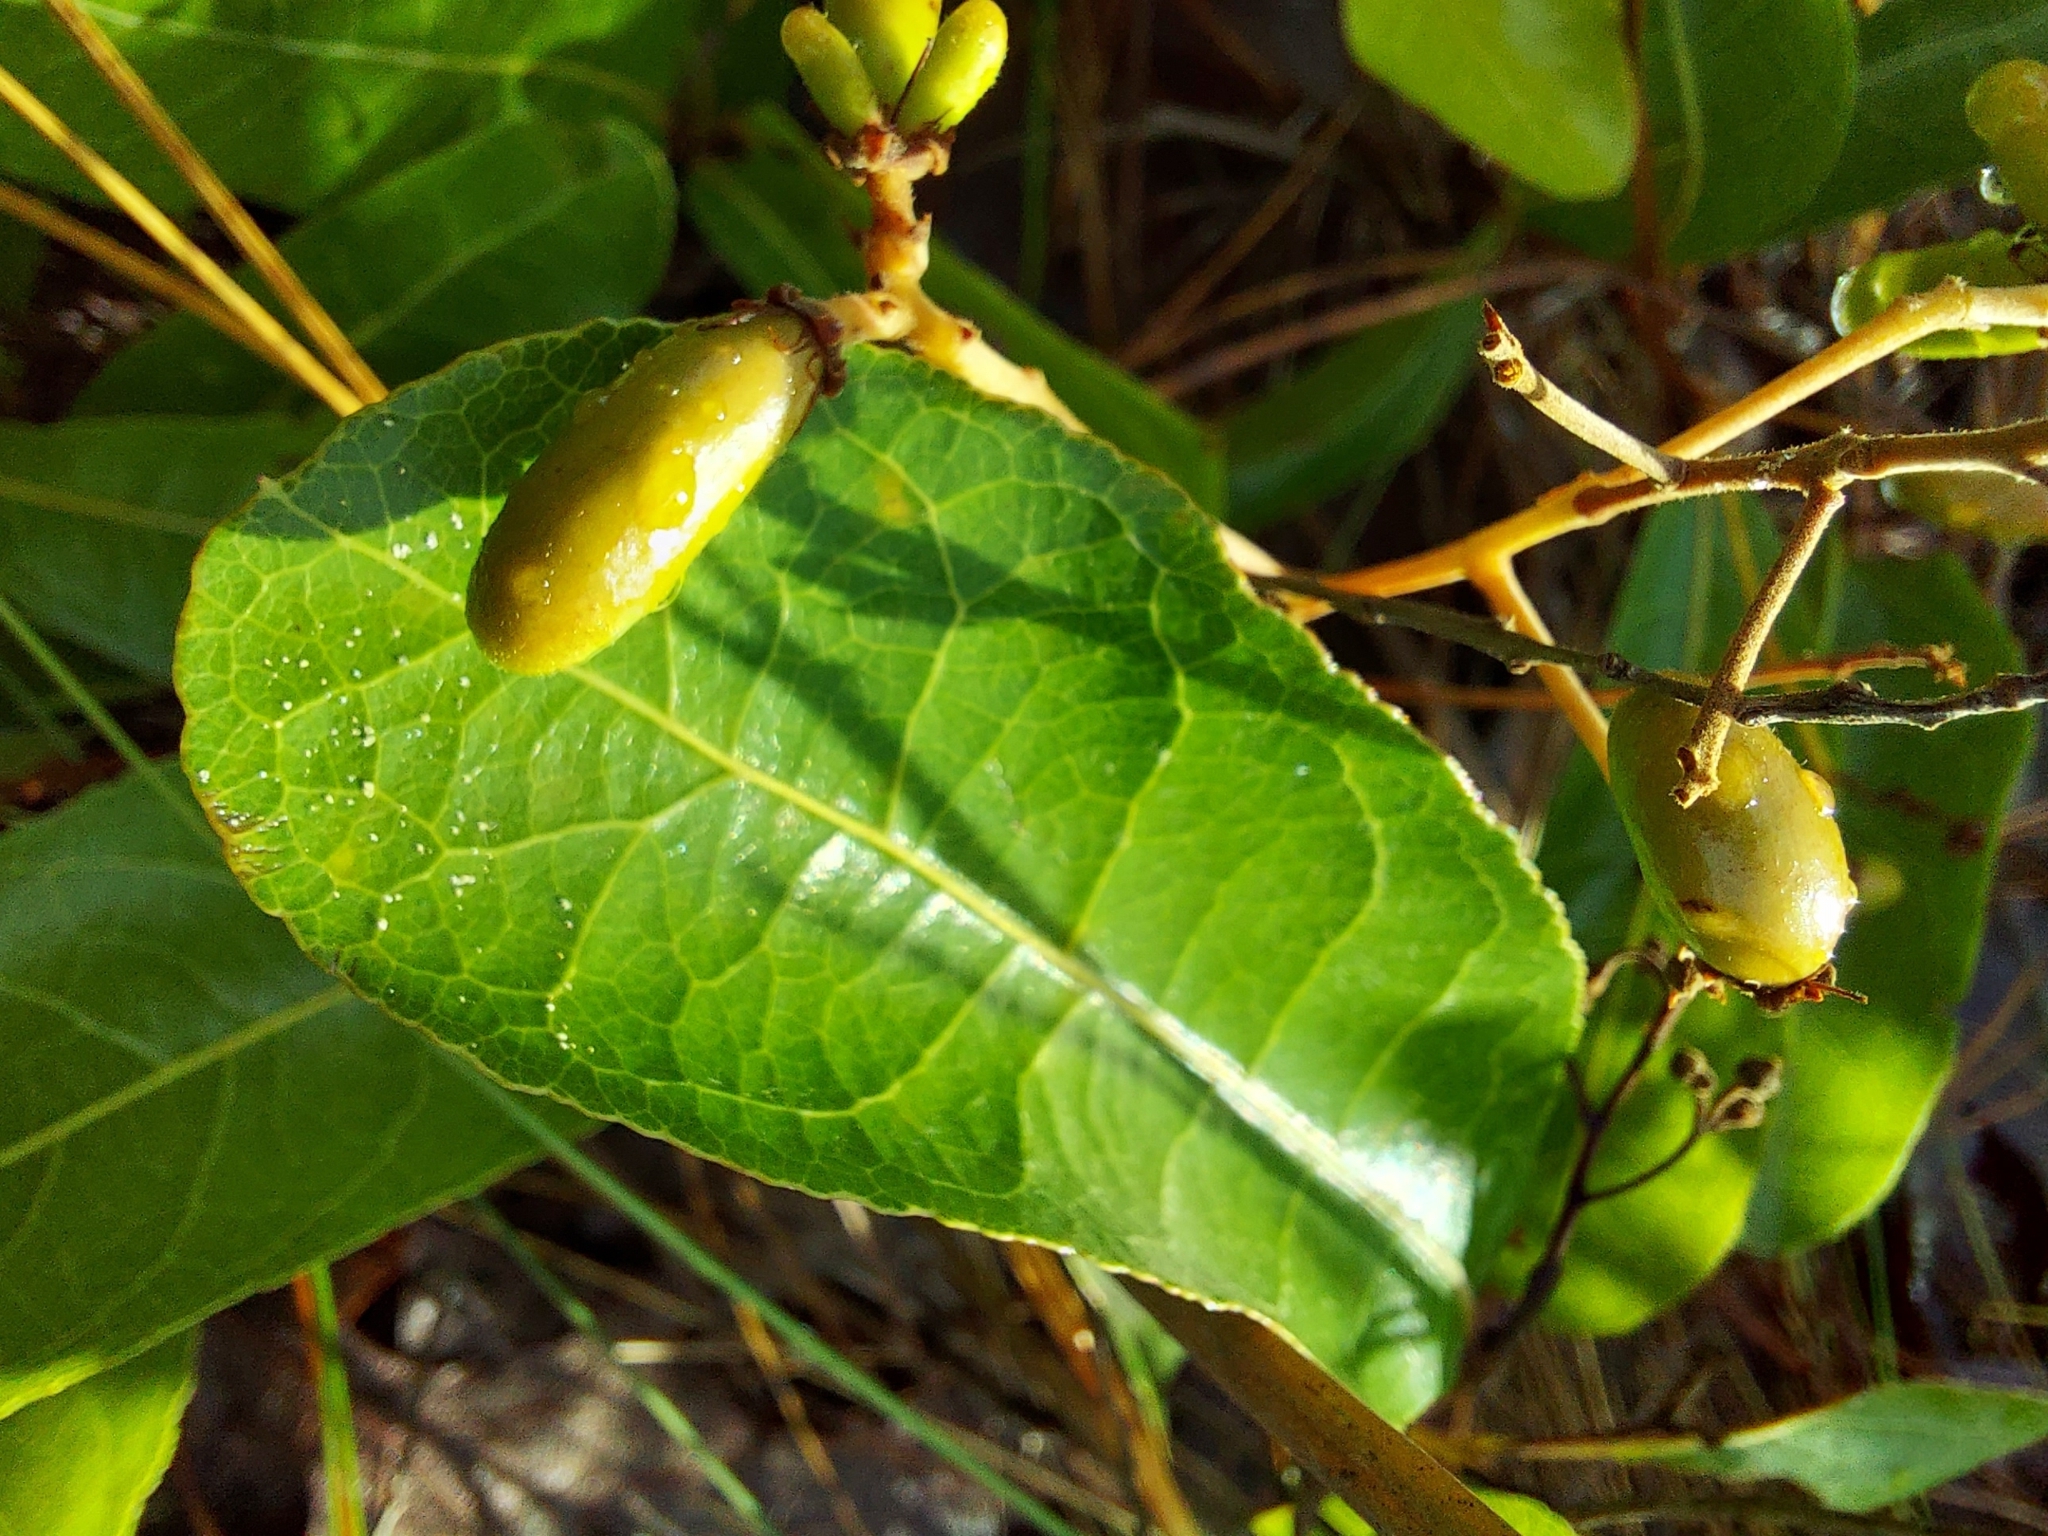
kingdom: Plantae
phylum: Tracheophyta
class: Magnoliopsida
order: Malpighiales
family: Chrysobalanaceae
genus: Geobalanus
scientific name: Geobalanus oblongifolius
